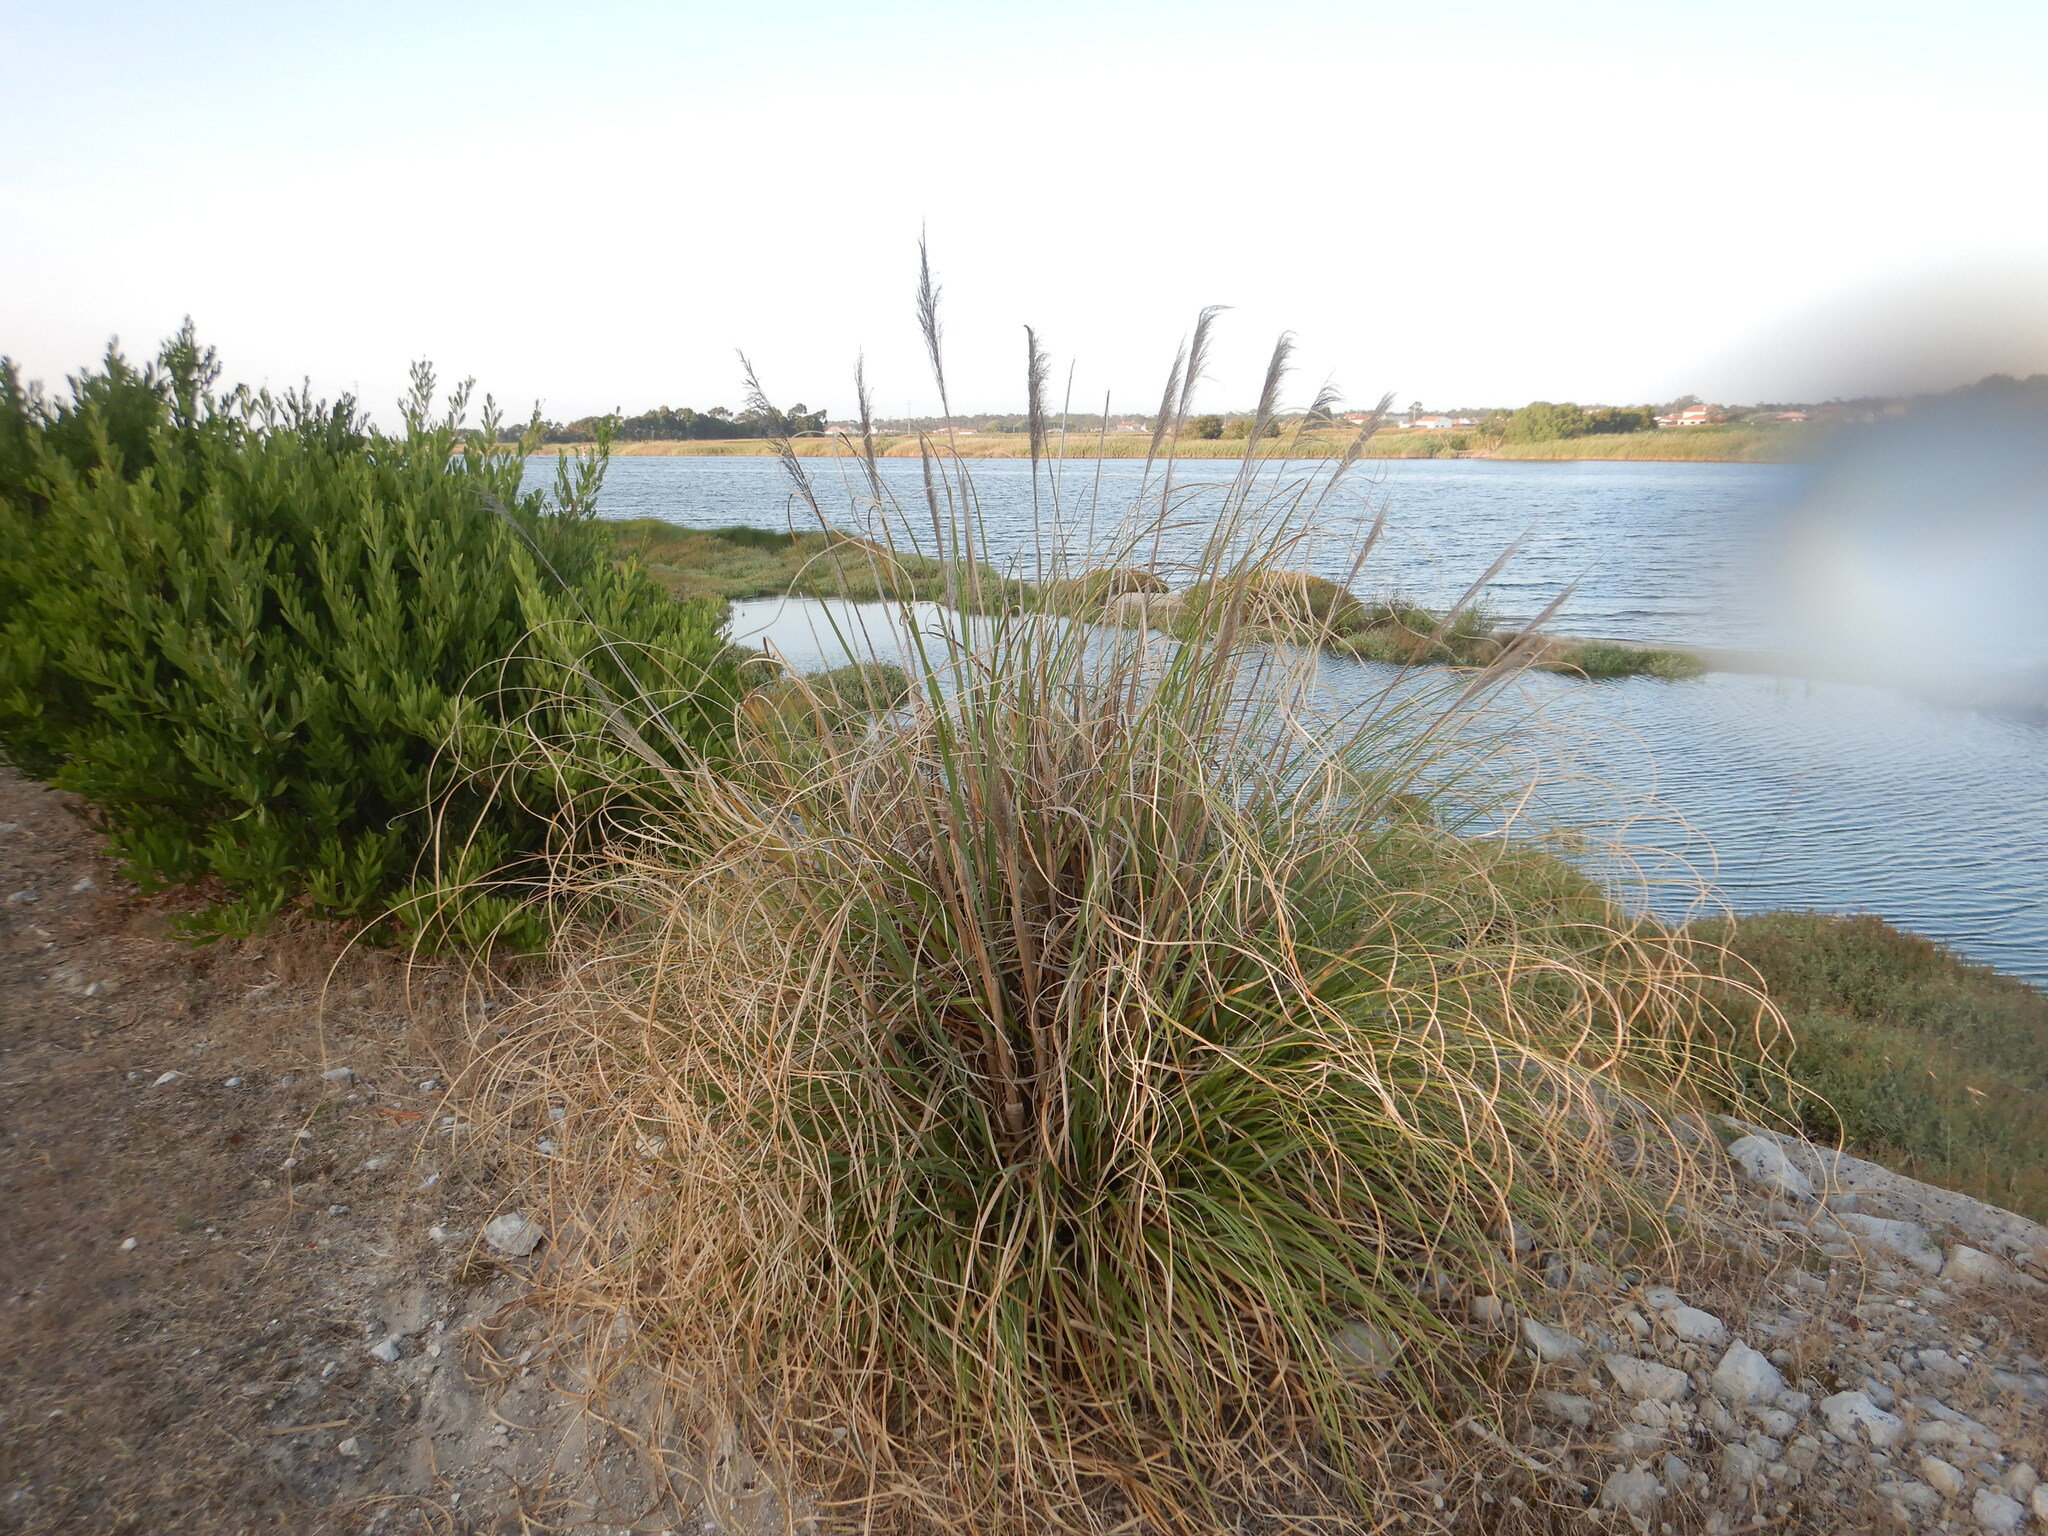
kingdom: Plantae
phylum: Tracheophyta
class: Liliopsida
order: Poales
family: Poaceae
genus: Cortaderia
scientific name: Cortaderia selloana
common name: Uruguayan pampas grass
